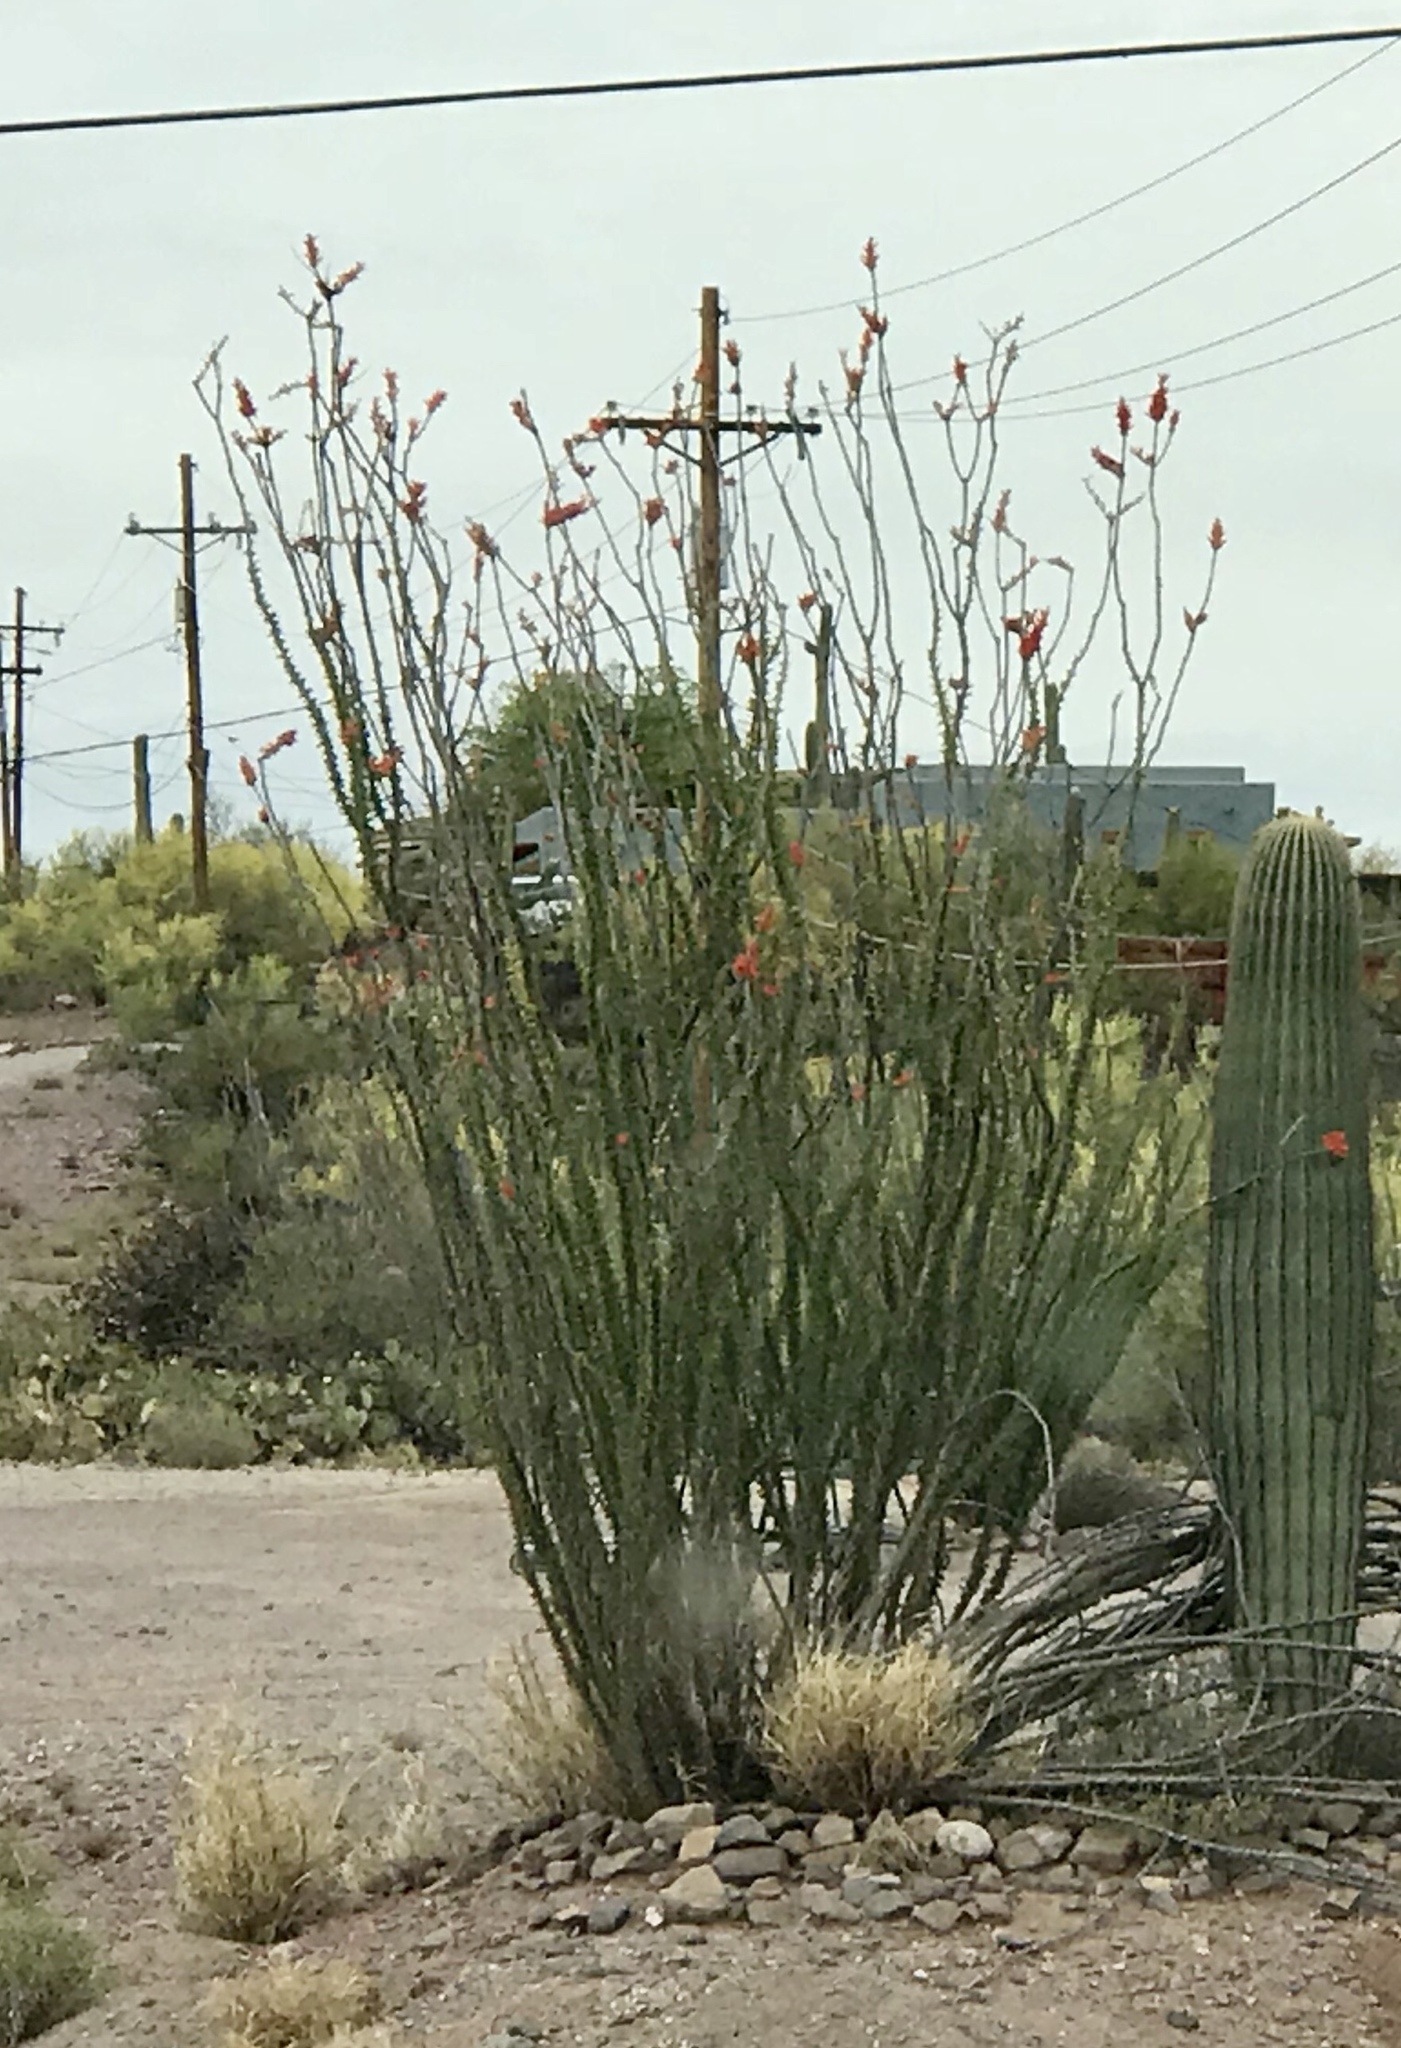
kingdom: Plantae
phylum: Tracheophyta
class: Magnoliopsida
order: Ericales
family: Fouquieriaceae
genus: Fouquieria
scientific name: Fouquieria splendens
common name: Vine-cactus
